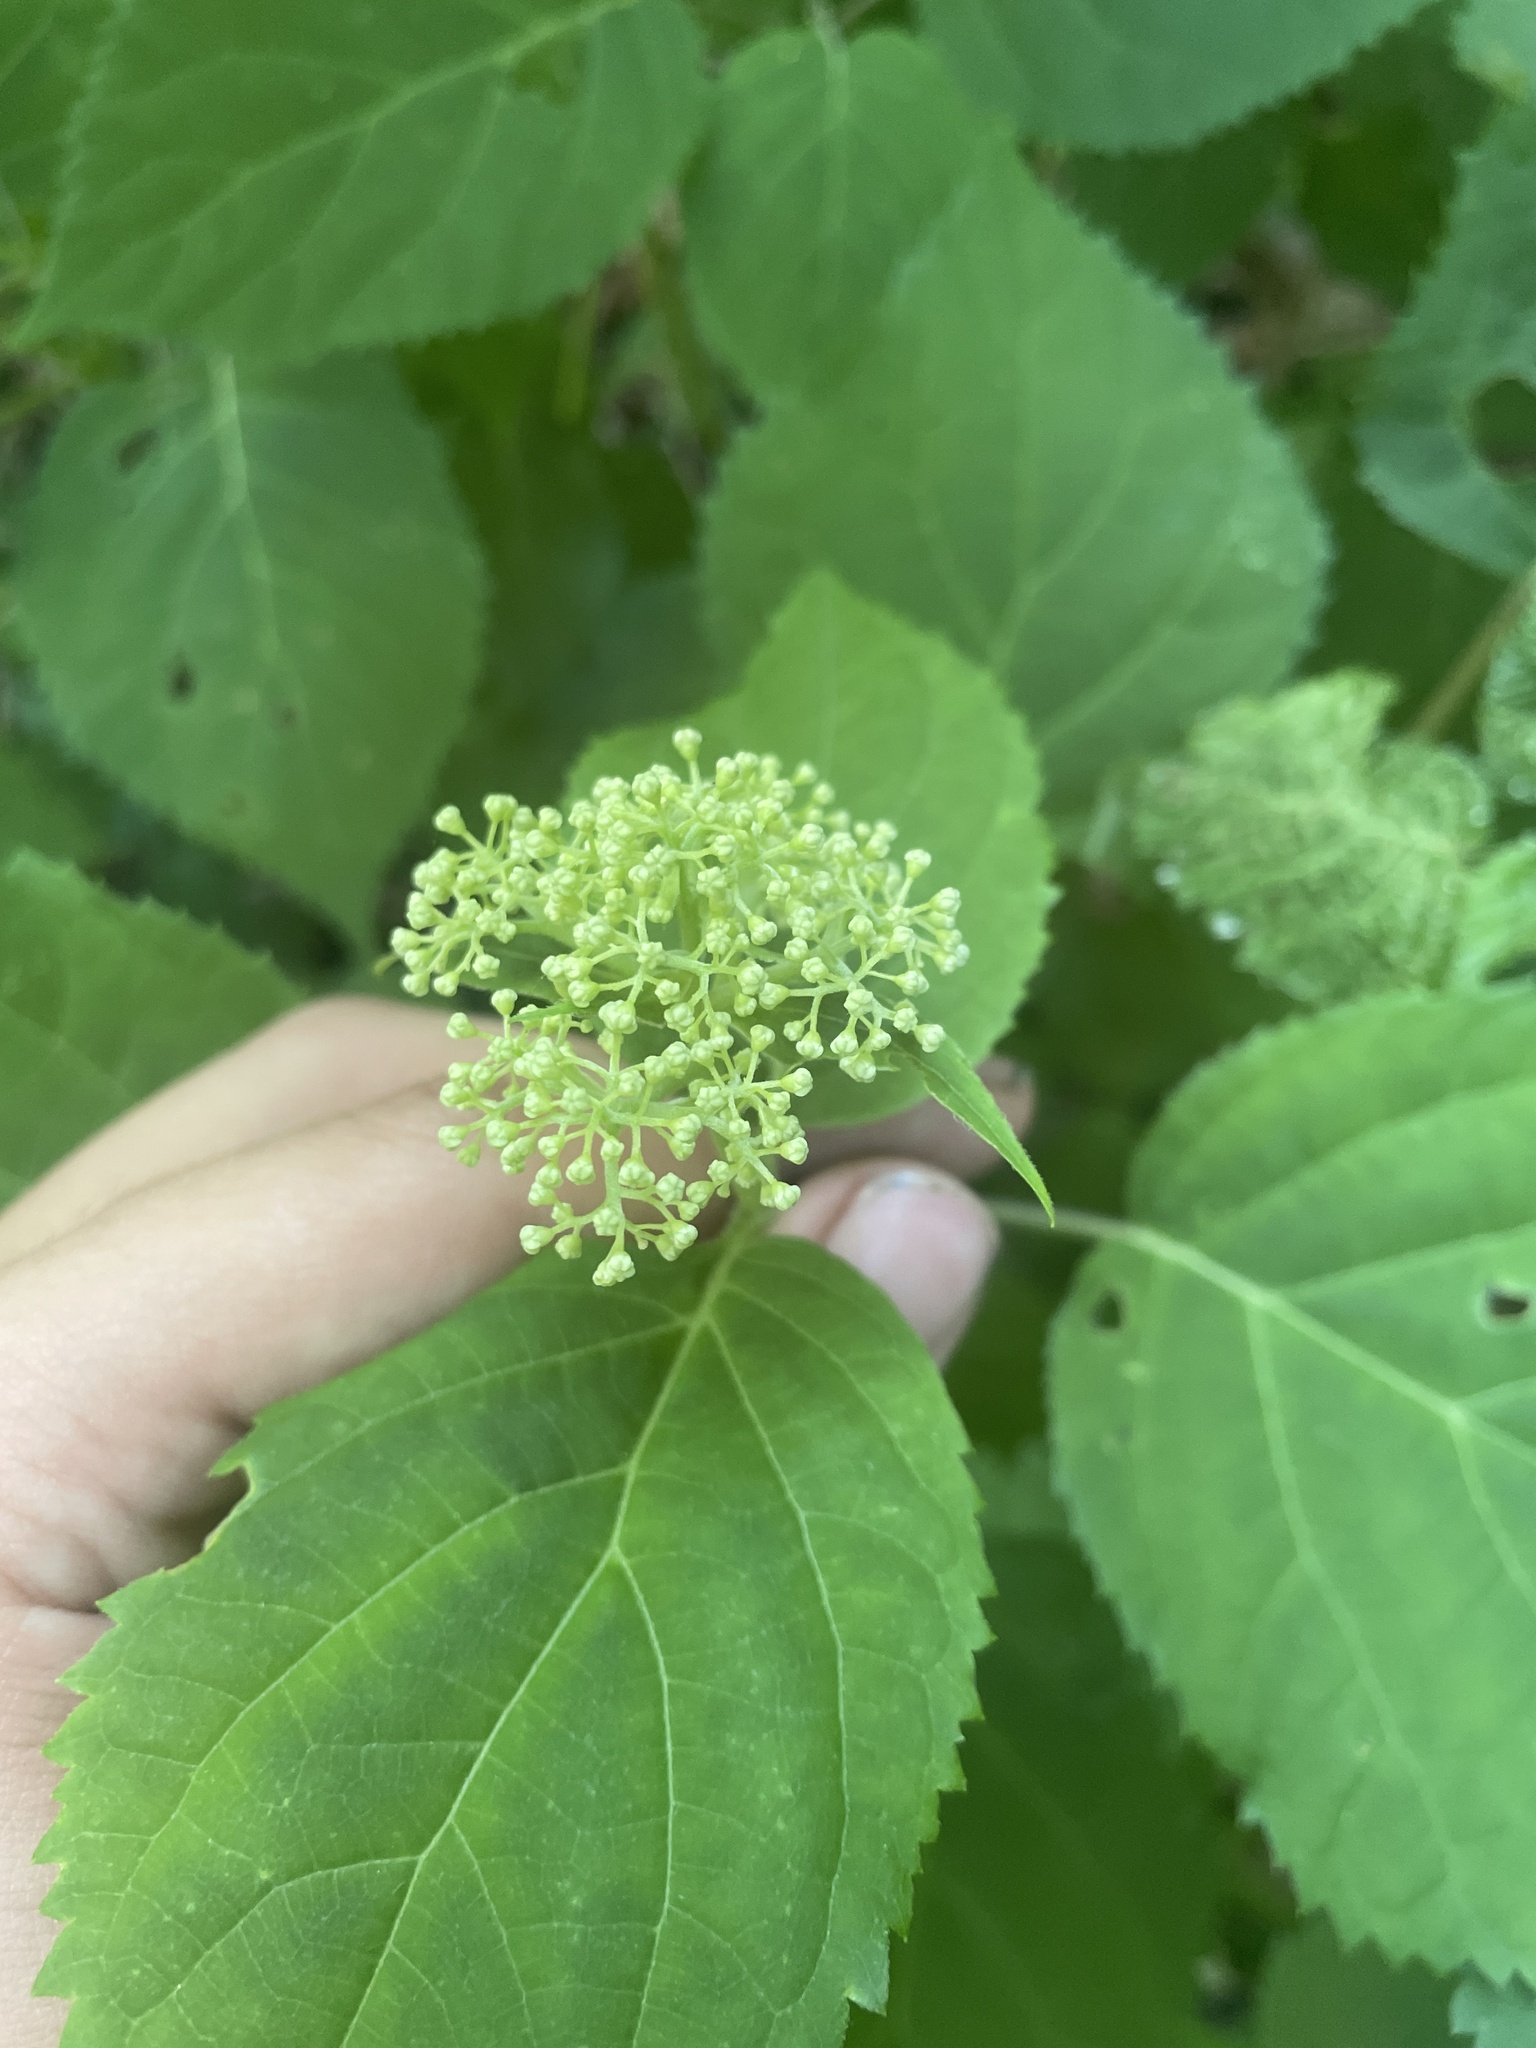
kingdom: Plantae
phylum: Tracheophyta
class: Magnoliopsida
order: Cornales
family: Hydrangeaceae
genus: Hydrangea
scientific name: Hydrangea arborescens
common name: Sevenbark
